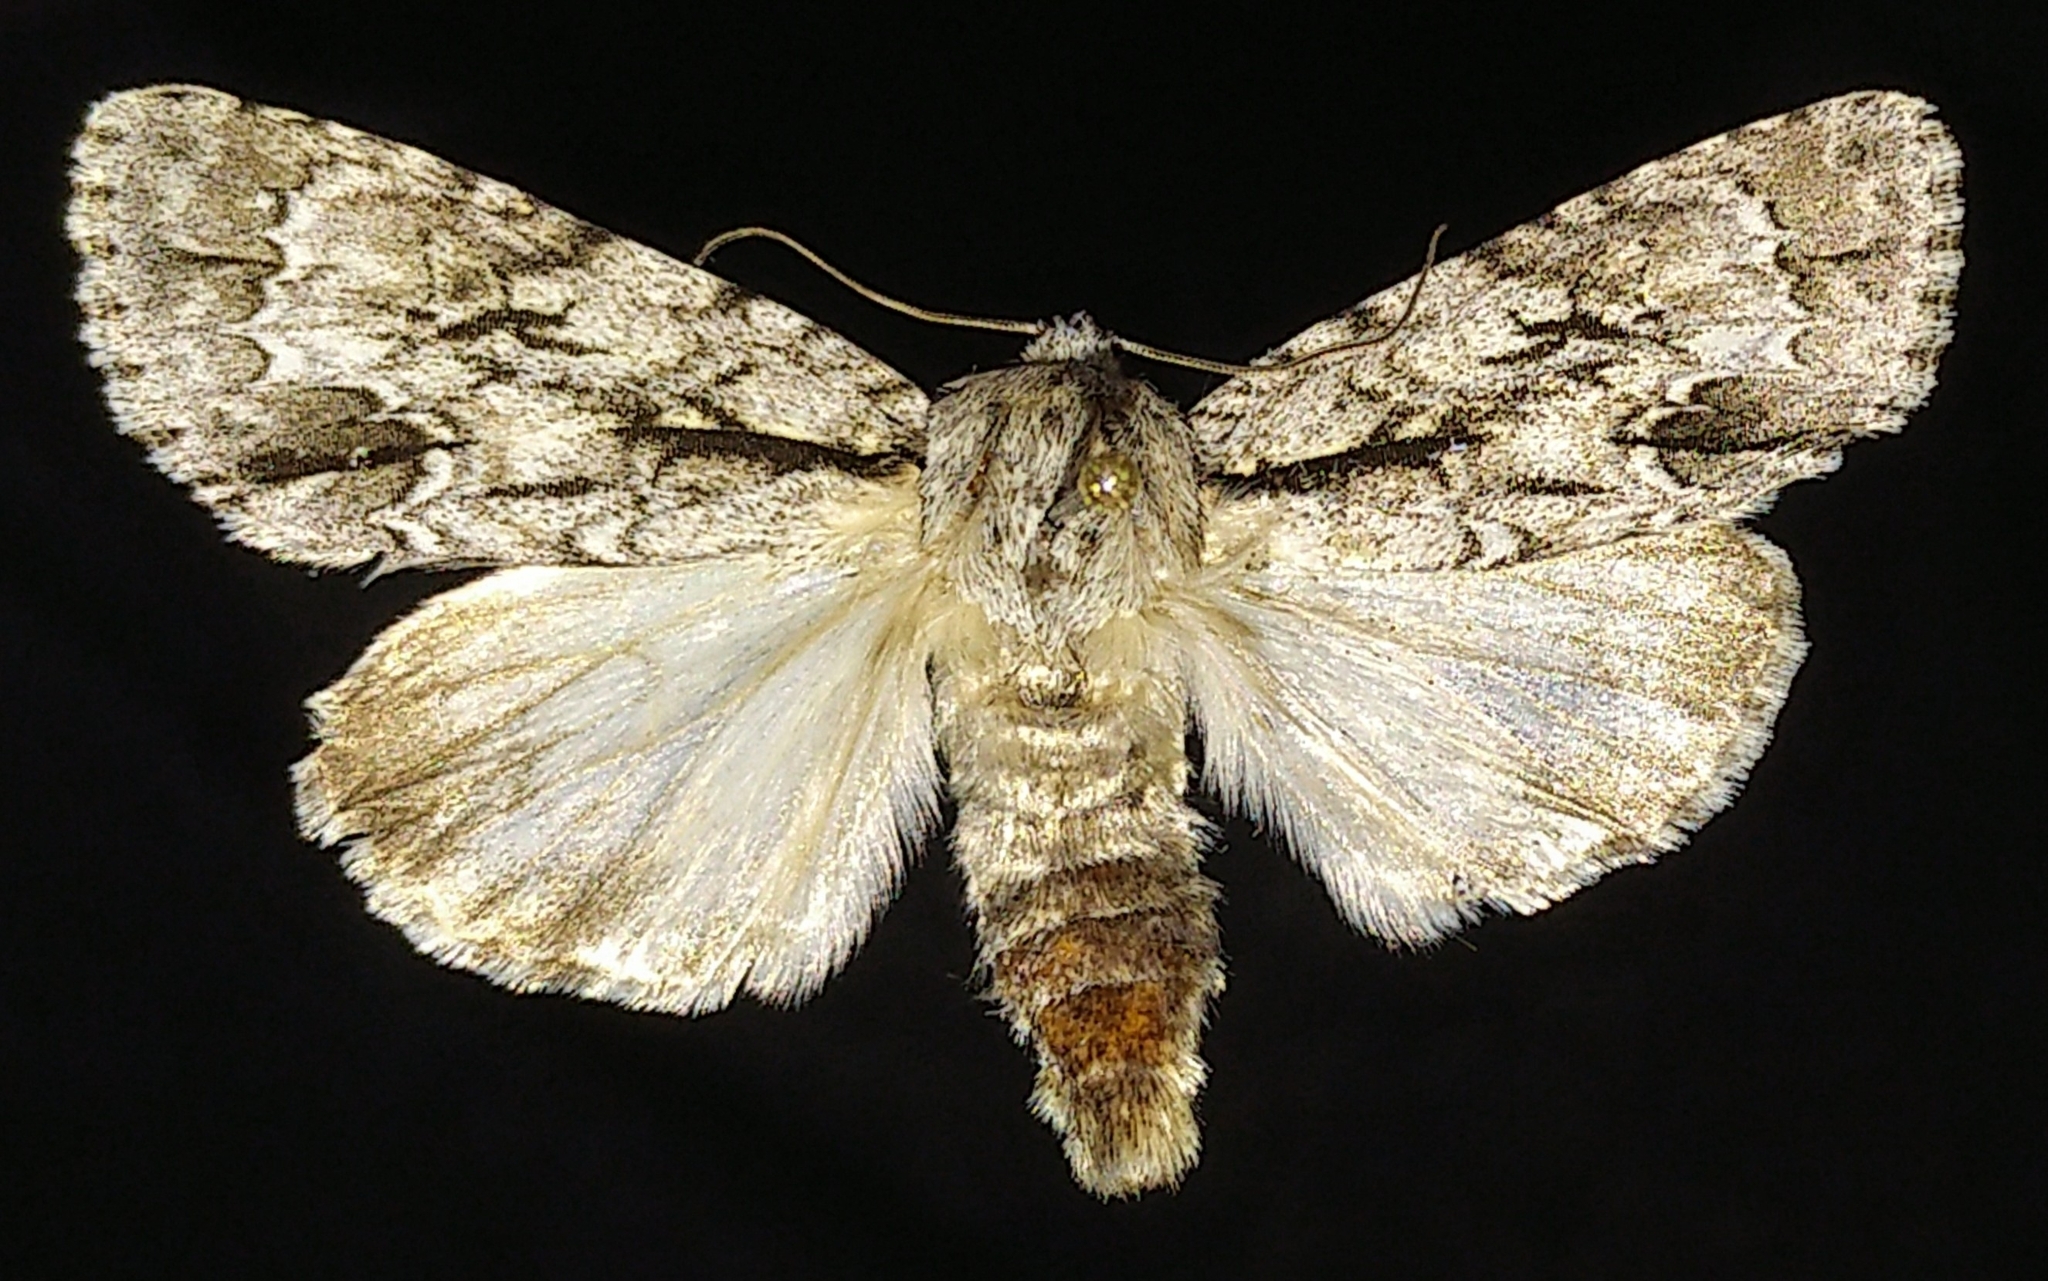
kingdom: Animalia
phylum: Arthropoda
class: Insecta
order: Lepidoptera
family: Noctuidae
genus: Acronicta
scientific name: Acronicta hasta
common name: Cherry dagger
